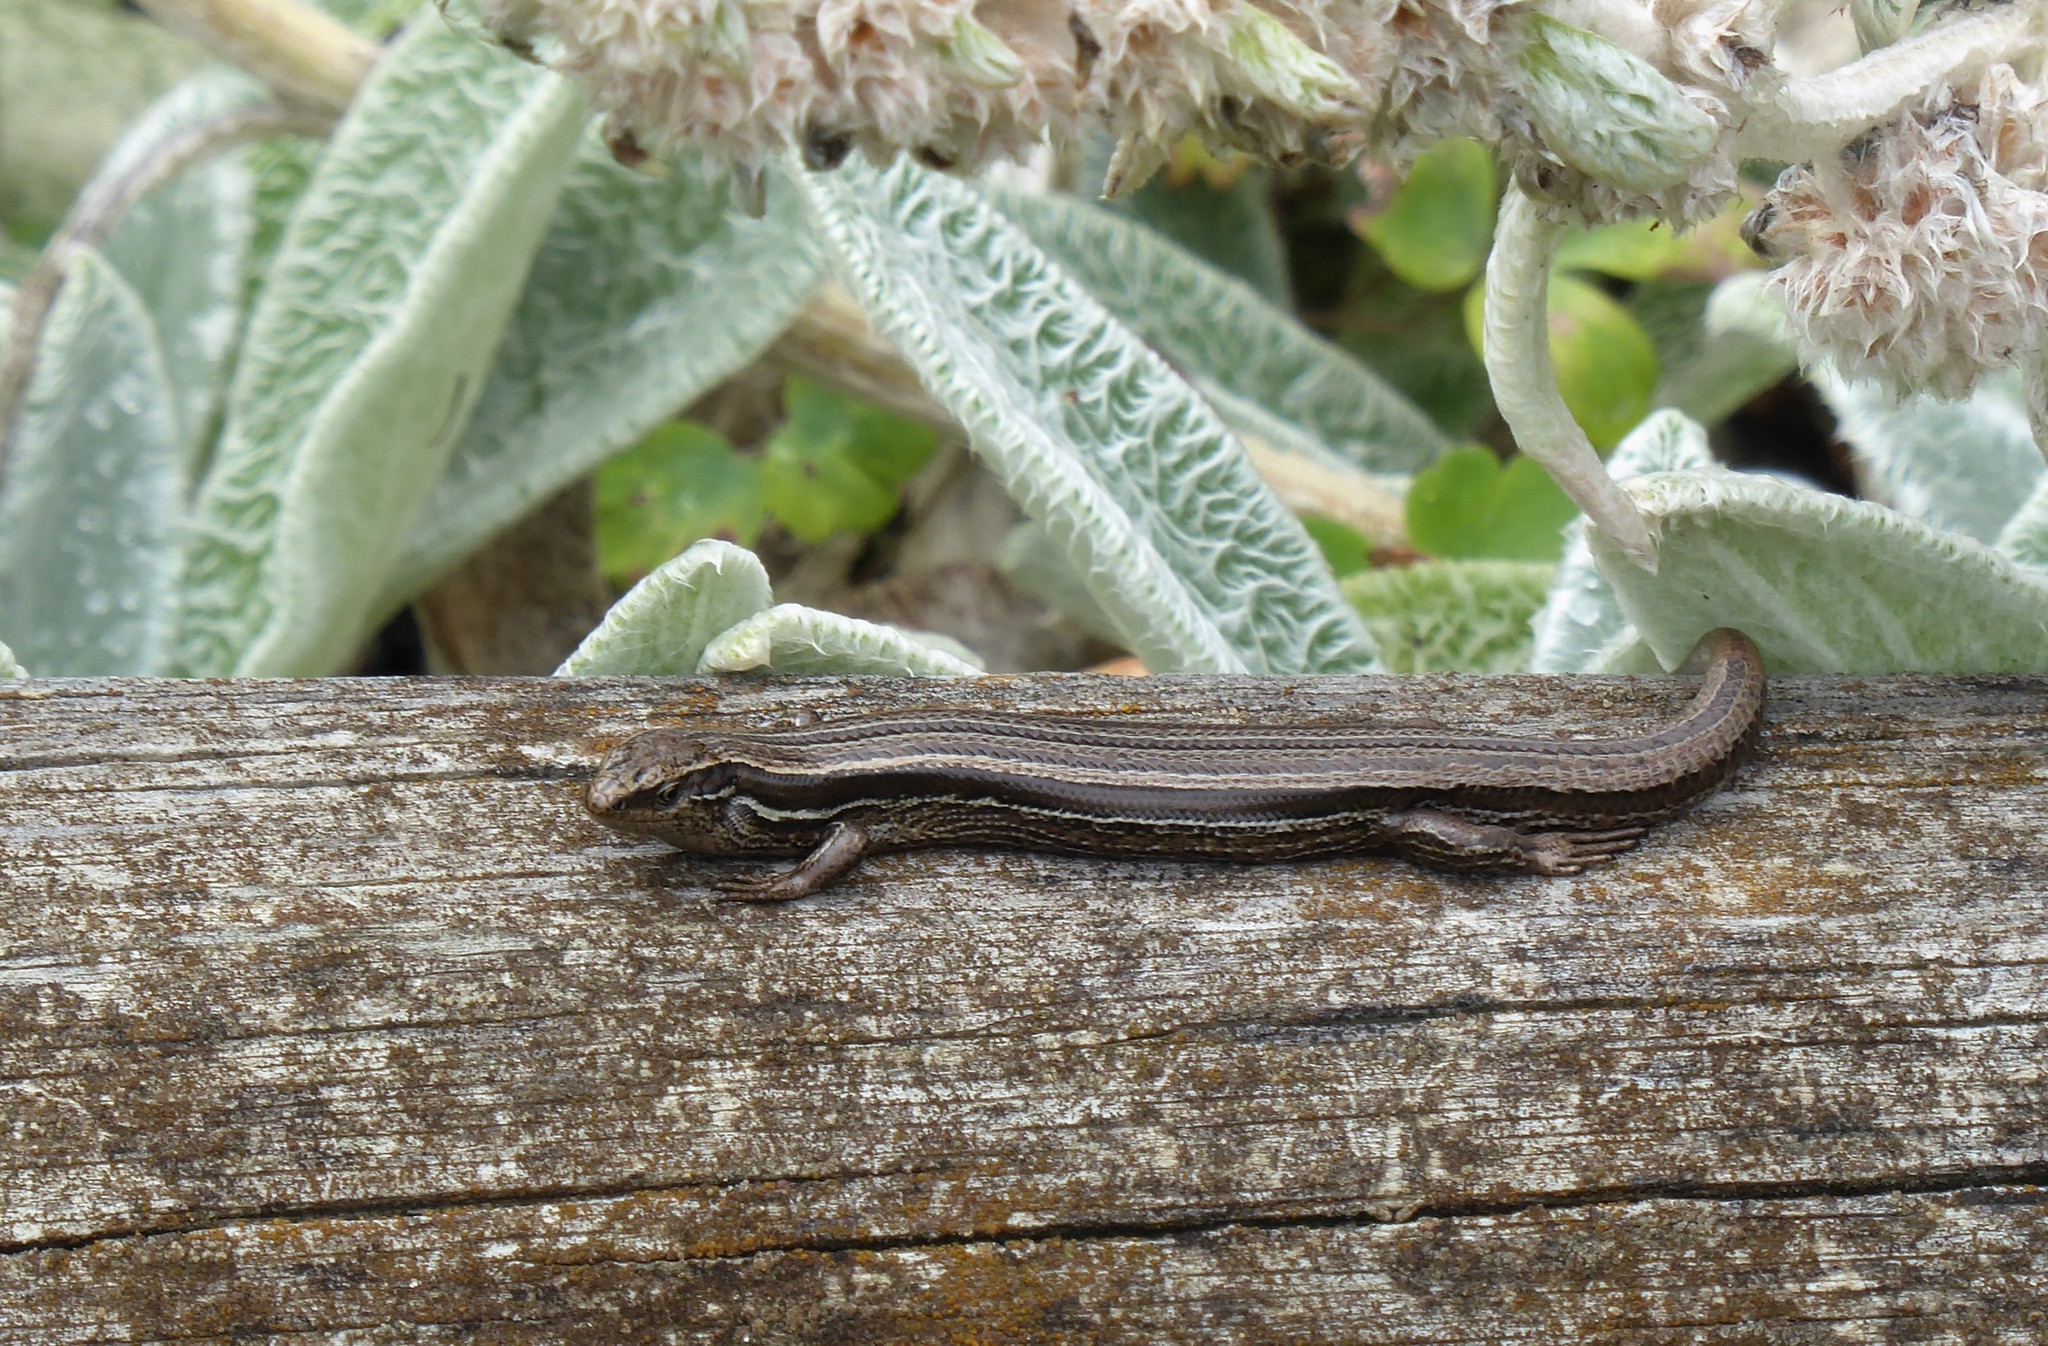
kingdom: Animalia
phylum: Chordata
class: Squamata
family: Scincidae
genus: Oligosoma
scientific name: Oligosoma polychroma
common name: Common new zealand skink
